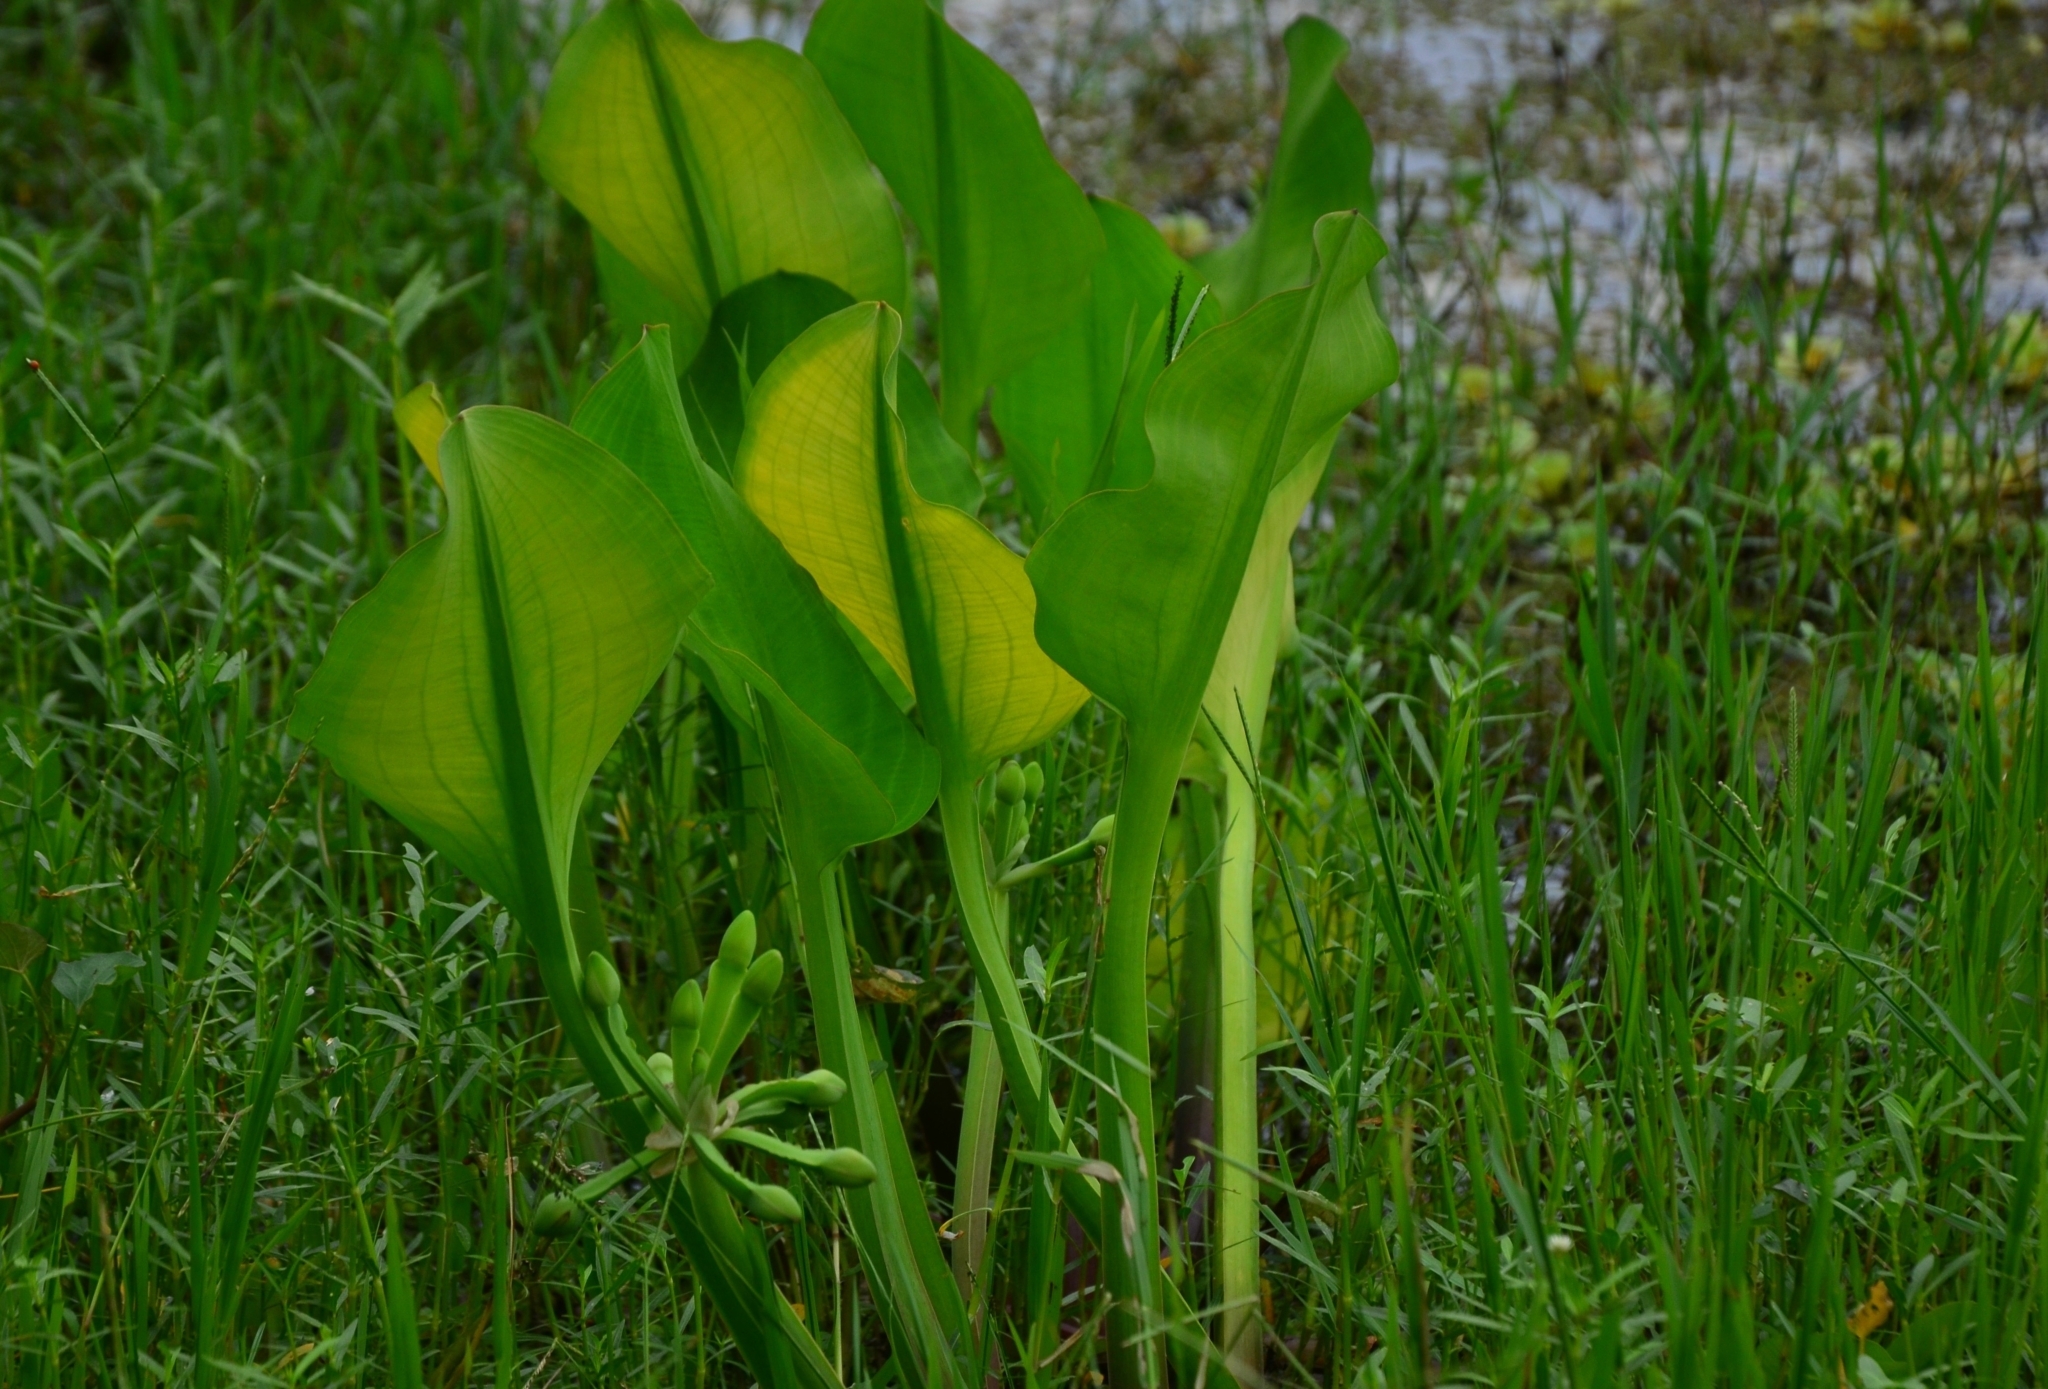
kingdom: Plantae
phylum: Tracheophyta
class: Liliopsida
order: Alismatales
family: Alismataceae
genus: Limnocharis
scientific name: Limnocharis flava
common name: Sawah-flower-rush
